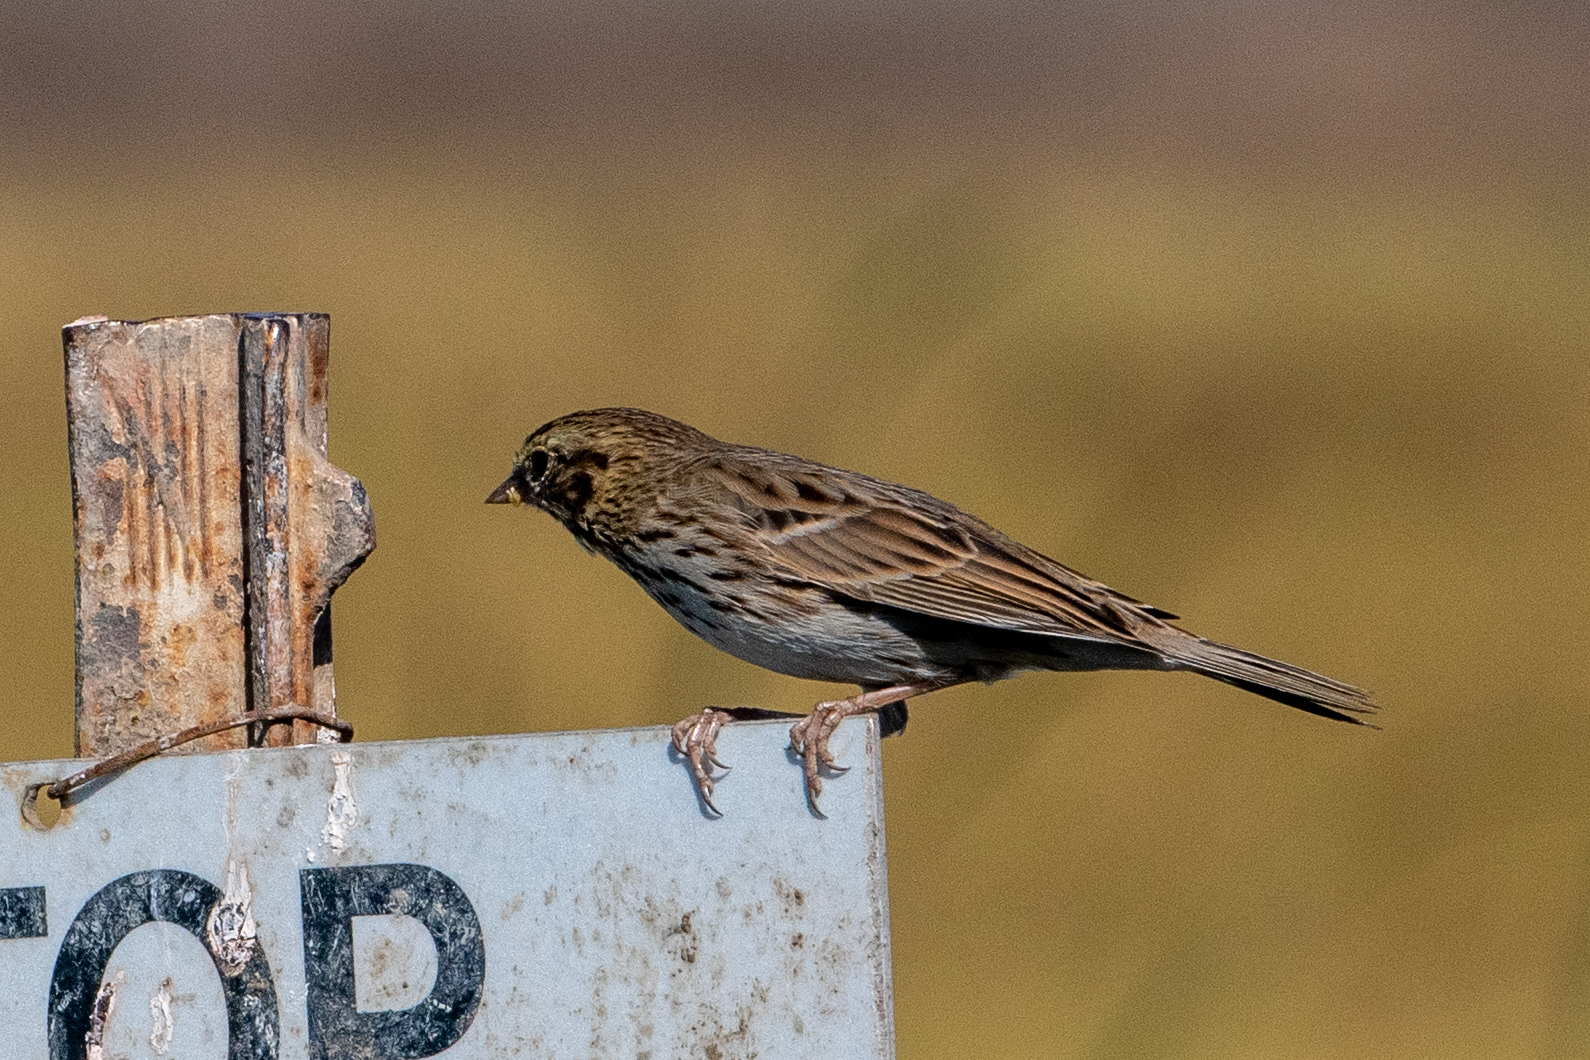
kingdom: Animalia
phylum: Chordata
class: Aves
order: Passeriformes
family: Passerellidae
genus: Passerculus
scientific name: Passerculus sandwichensis
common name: Savannah sparrow
